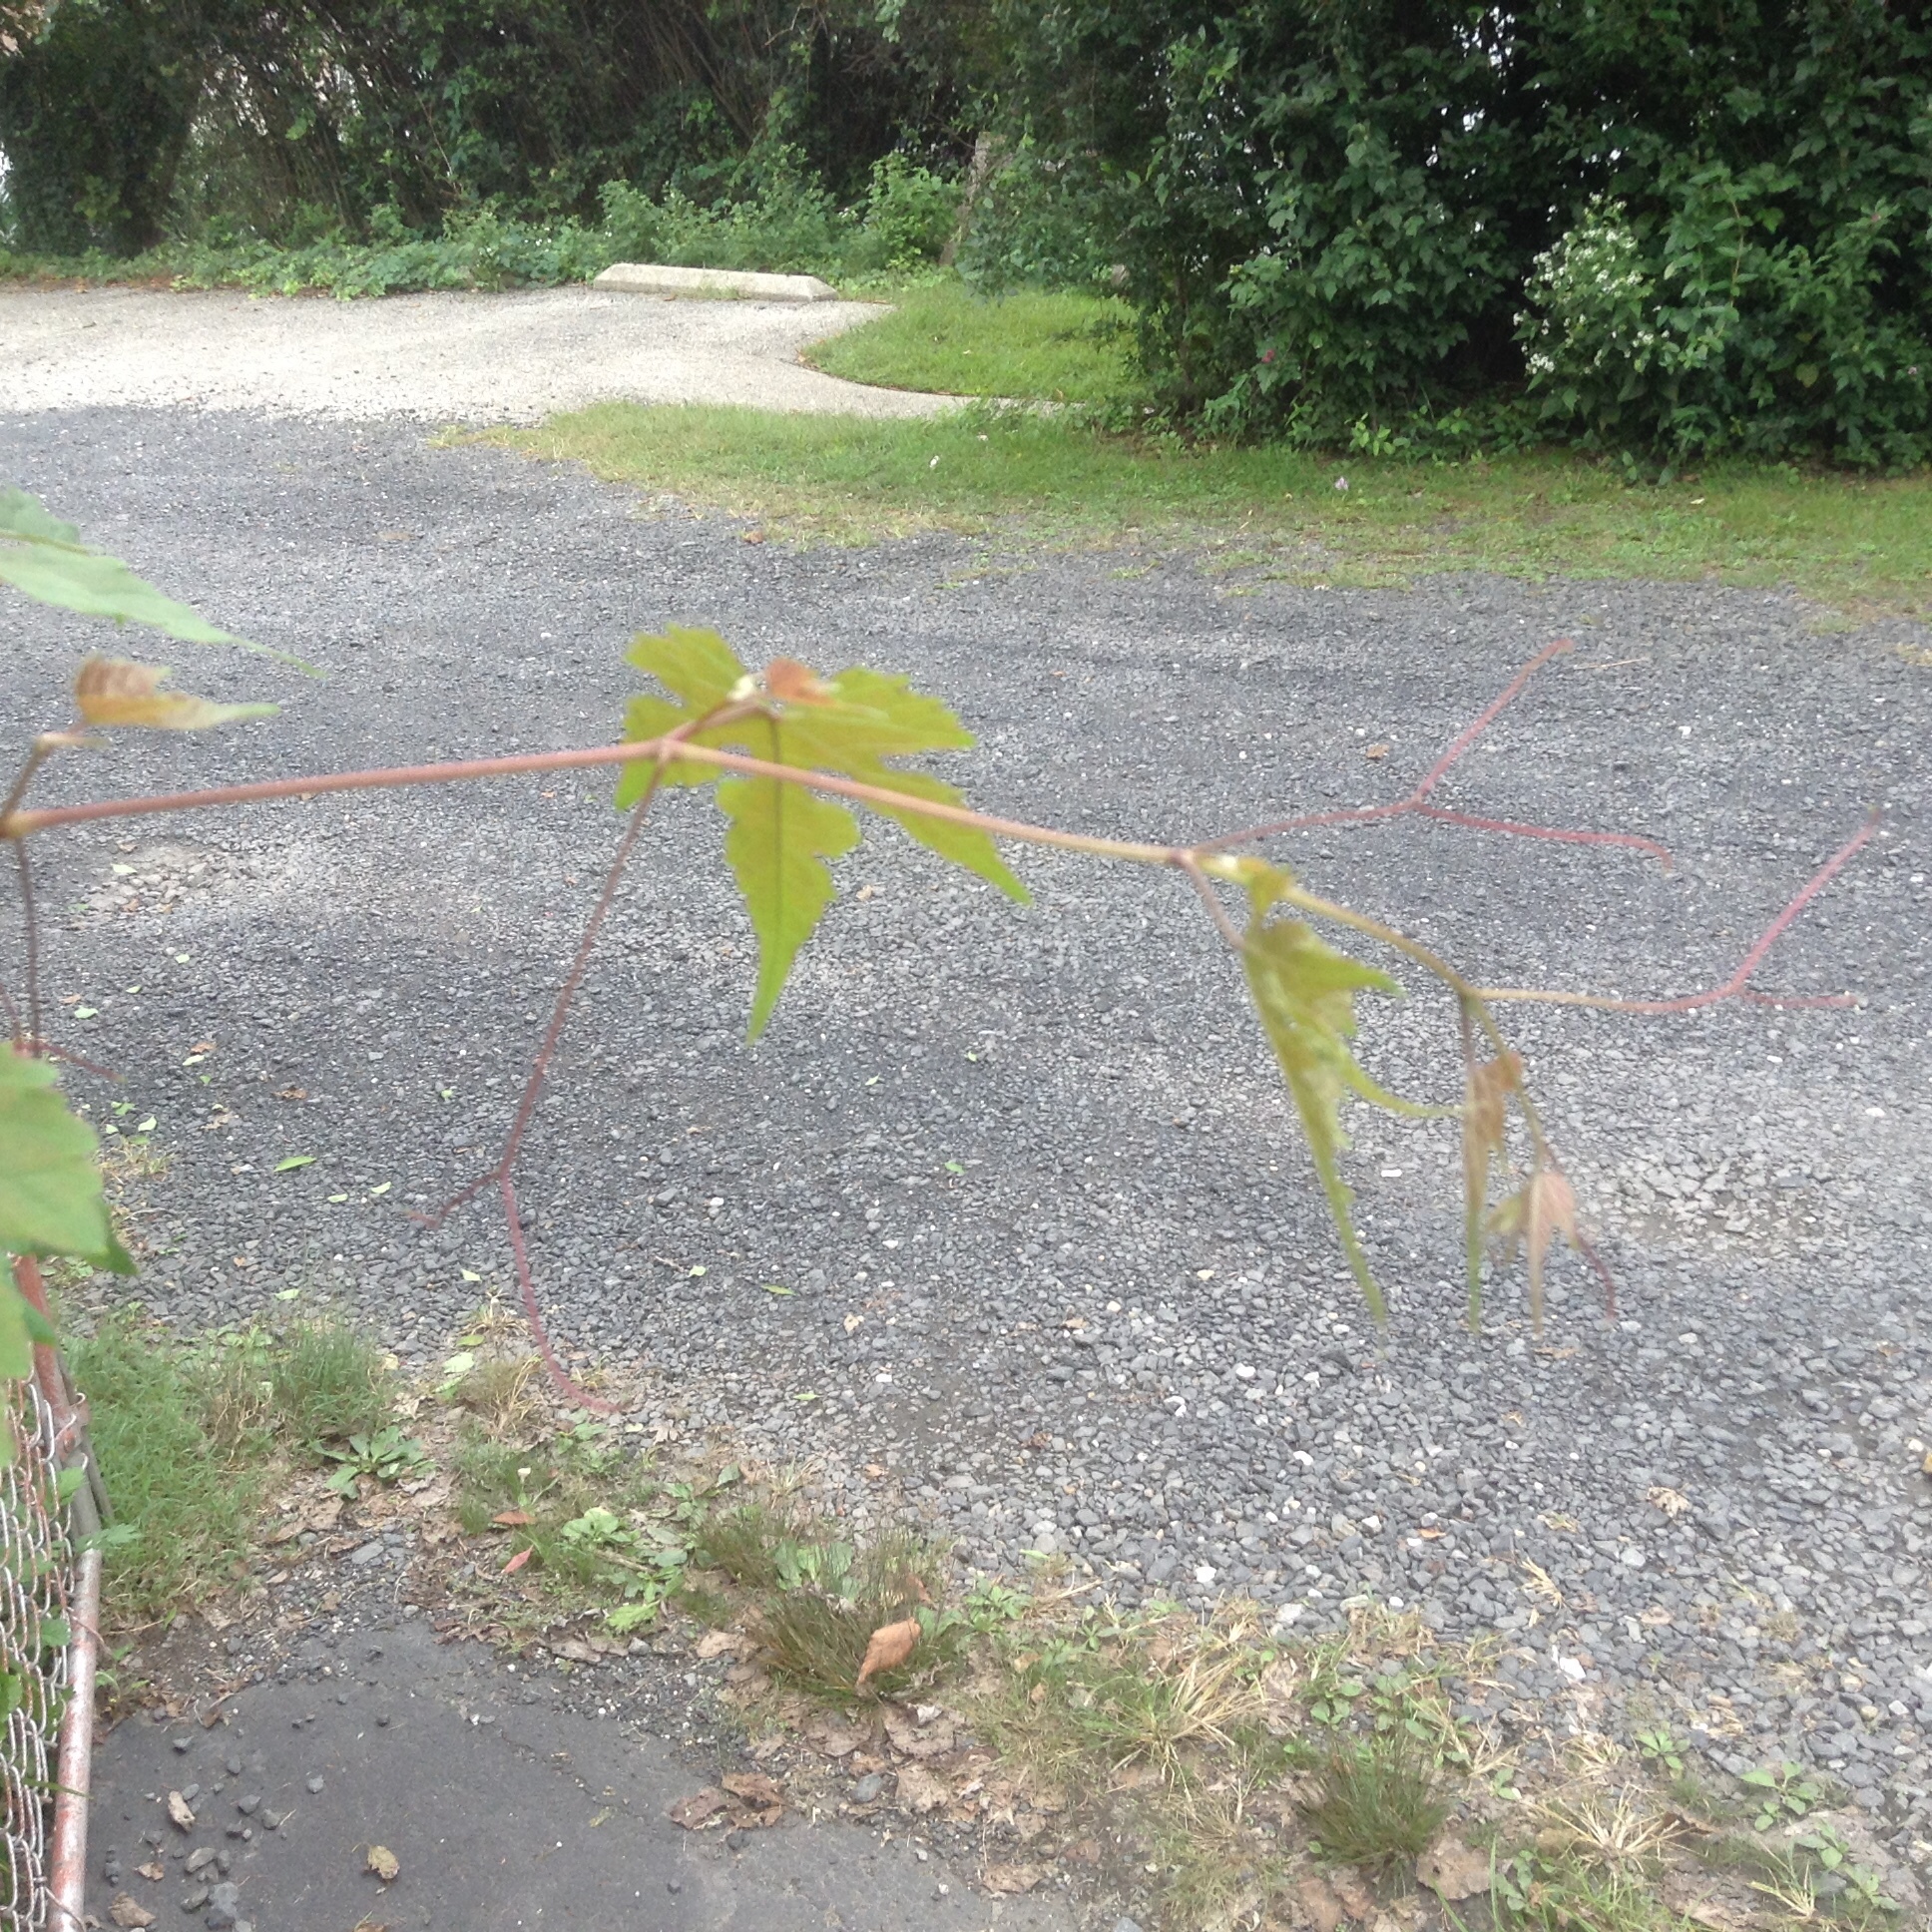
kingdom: Plantae
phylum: Tracheophyta
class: Magnoliopsida
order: Vitales
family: Vitaceae
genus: Ampelopsis
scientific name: Ampelopsis glandulosa
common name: Amur peppervine
